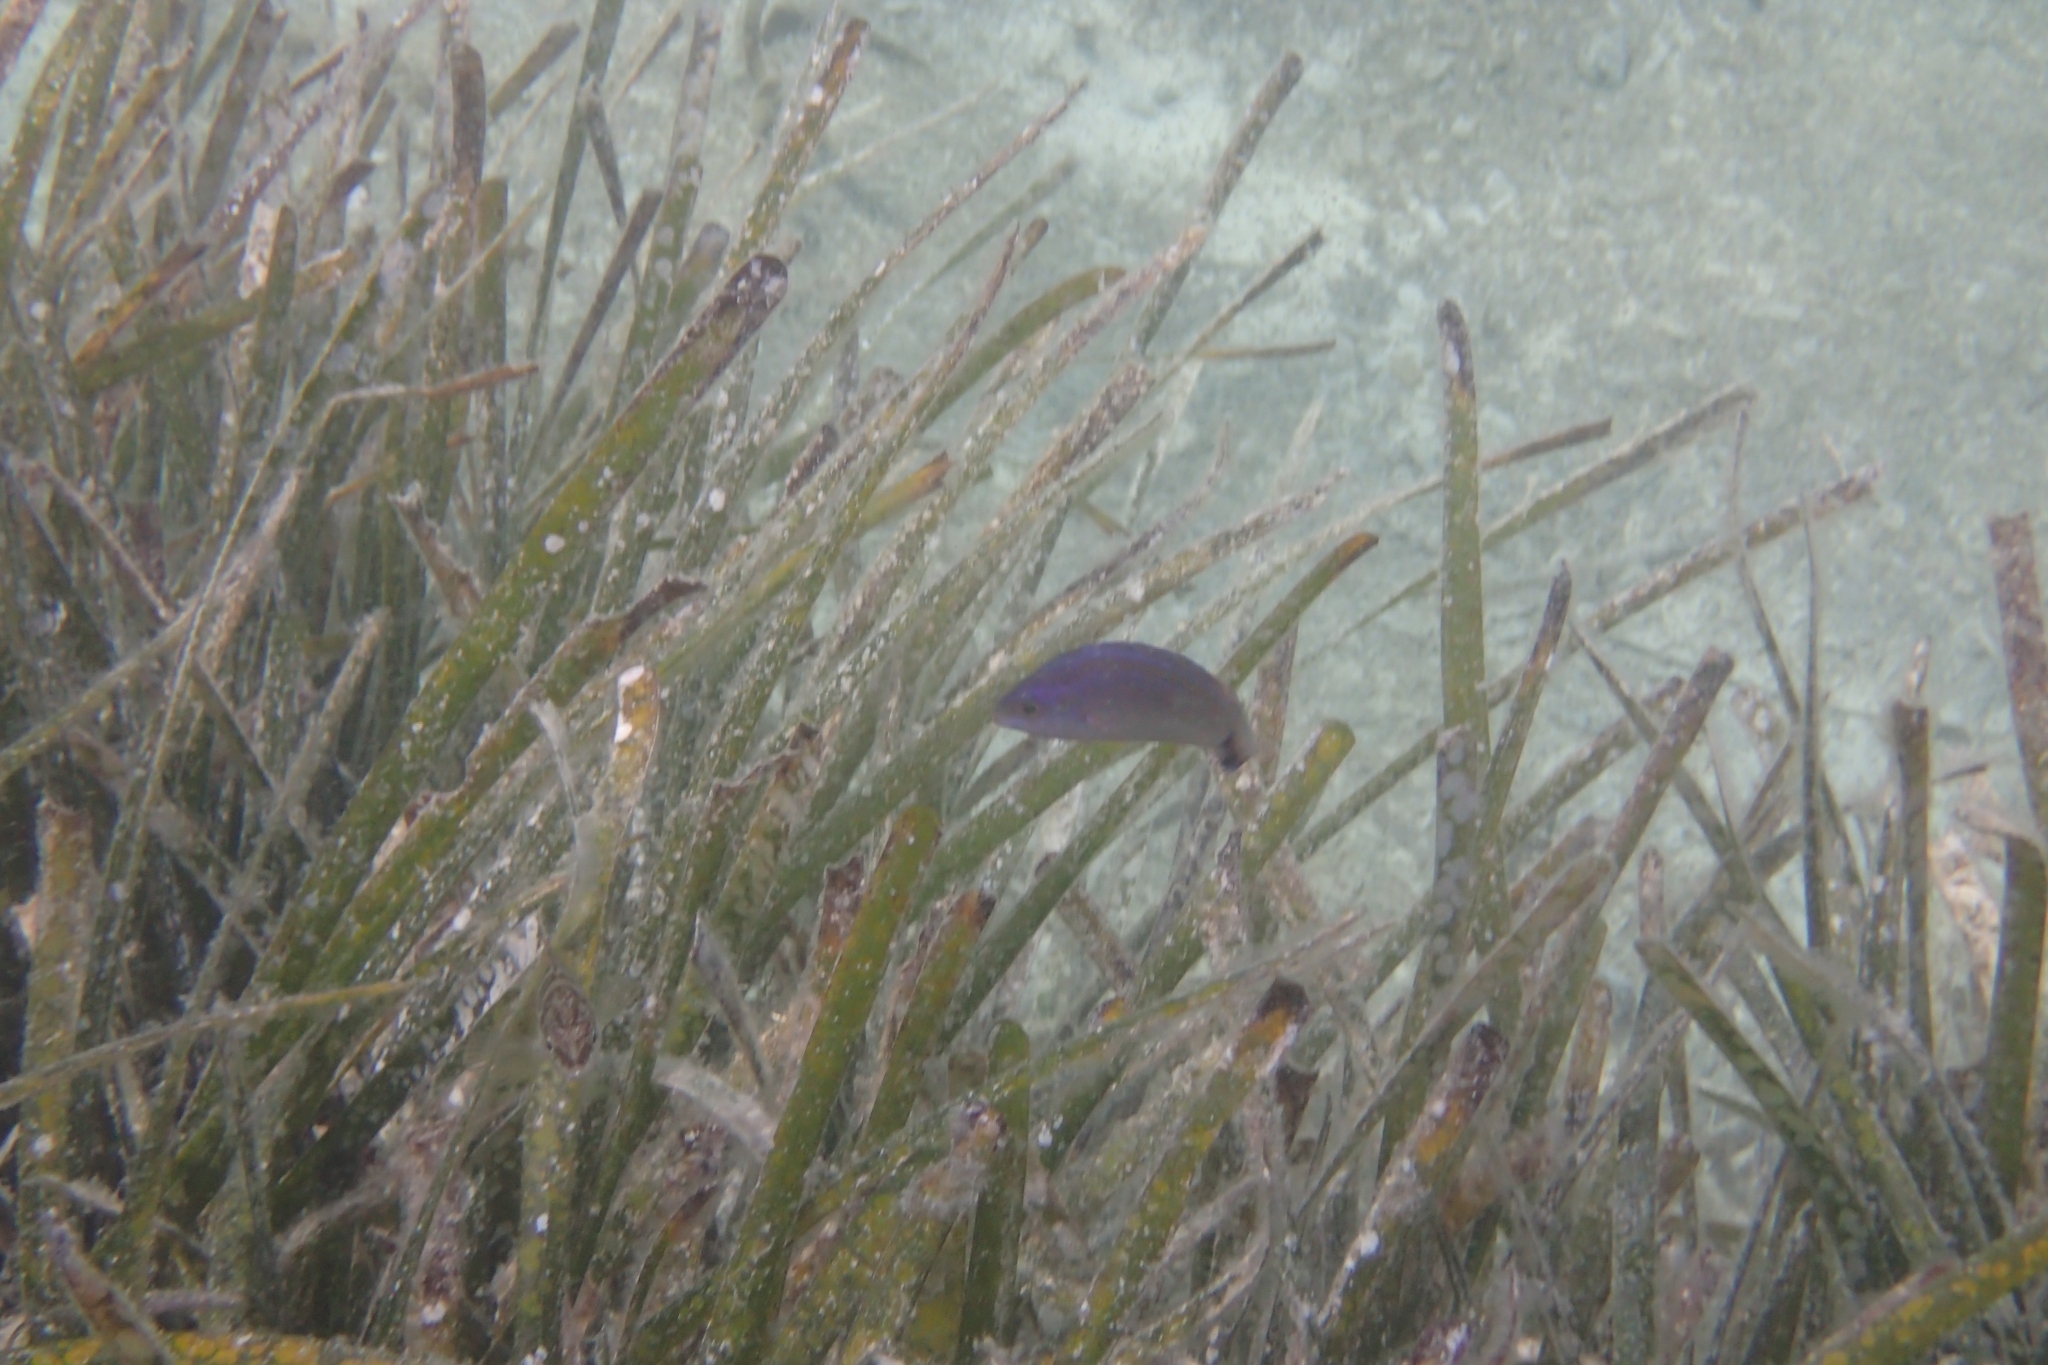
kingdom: Animalia
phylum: Chordata
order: Perciformes
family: Labridae
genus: Centrolabrus
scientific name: Centrolabrus melanocercus
